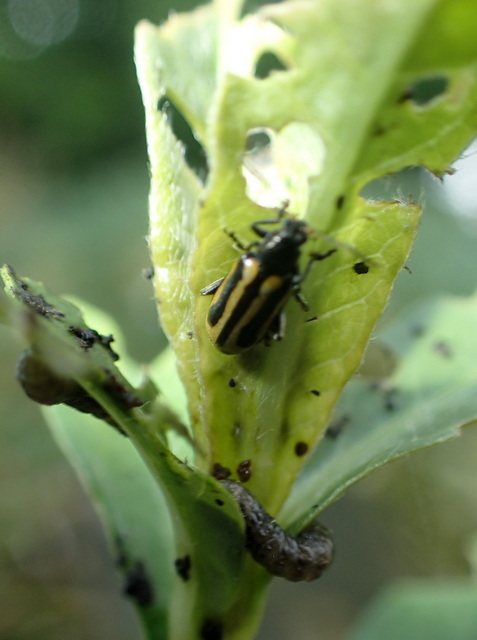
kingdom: Animalia
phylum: Arthropoda
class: Insecta
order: Coleoptera
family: Chrysomelidae
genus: Agasicles
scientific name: Agasicles hygrophila
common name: Alligatorweed flea beetle
